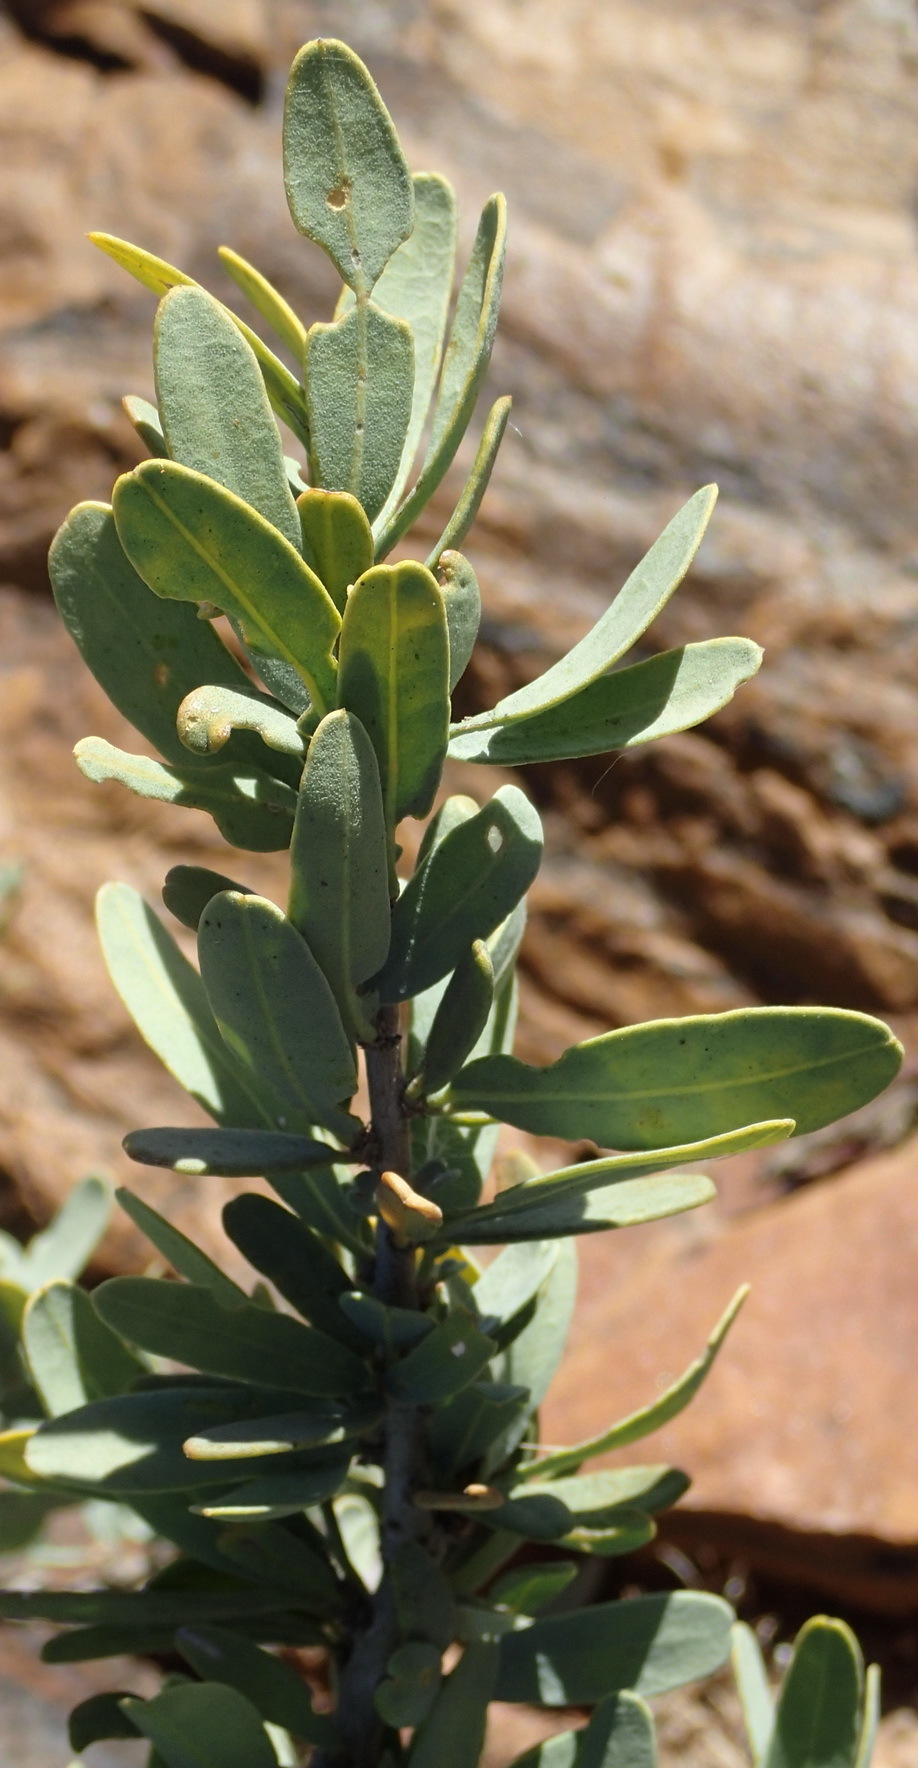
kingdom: Plantae
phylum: Tracheophyta
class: Magnoliopsida
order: Brassicales
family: Capparaceae
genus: Boscia
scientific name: Boscia albitrunca
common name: Caper bush
